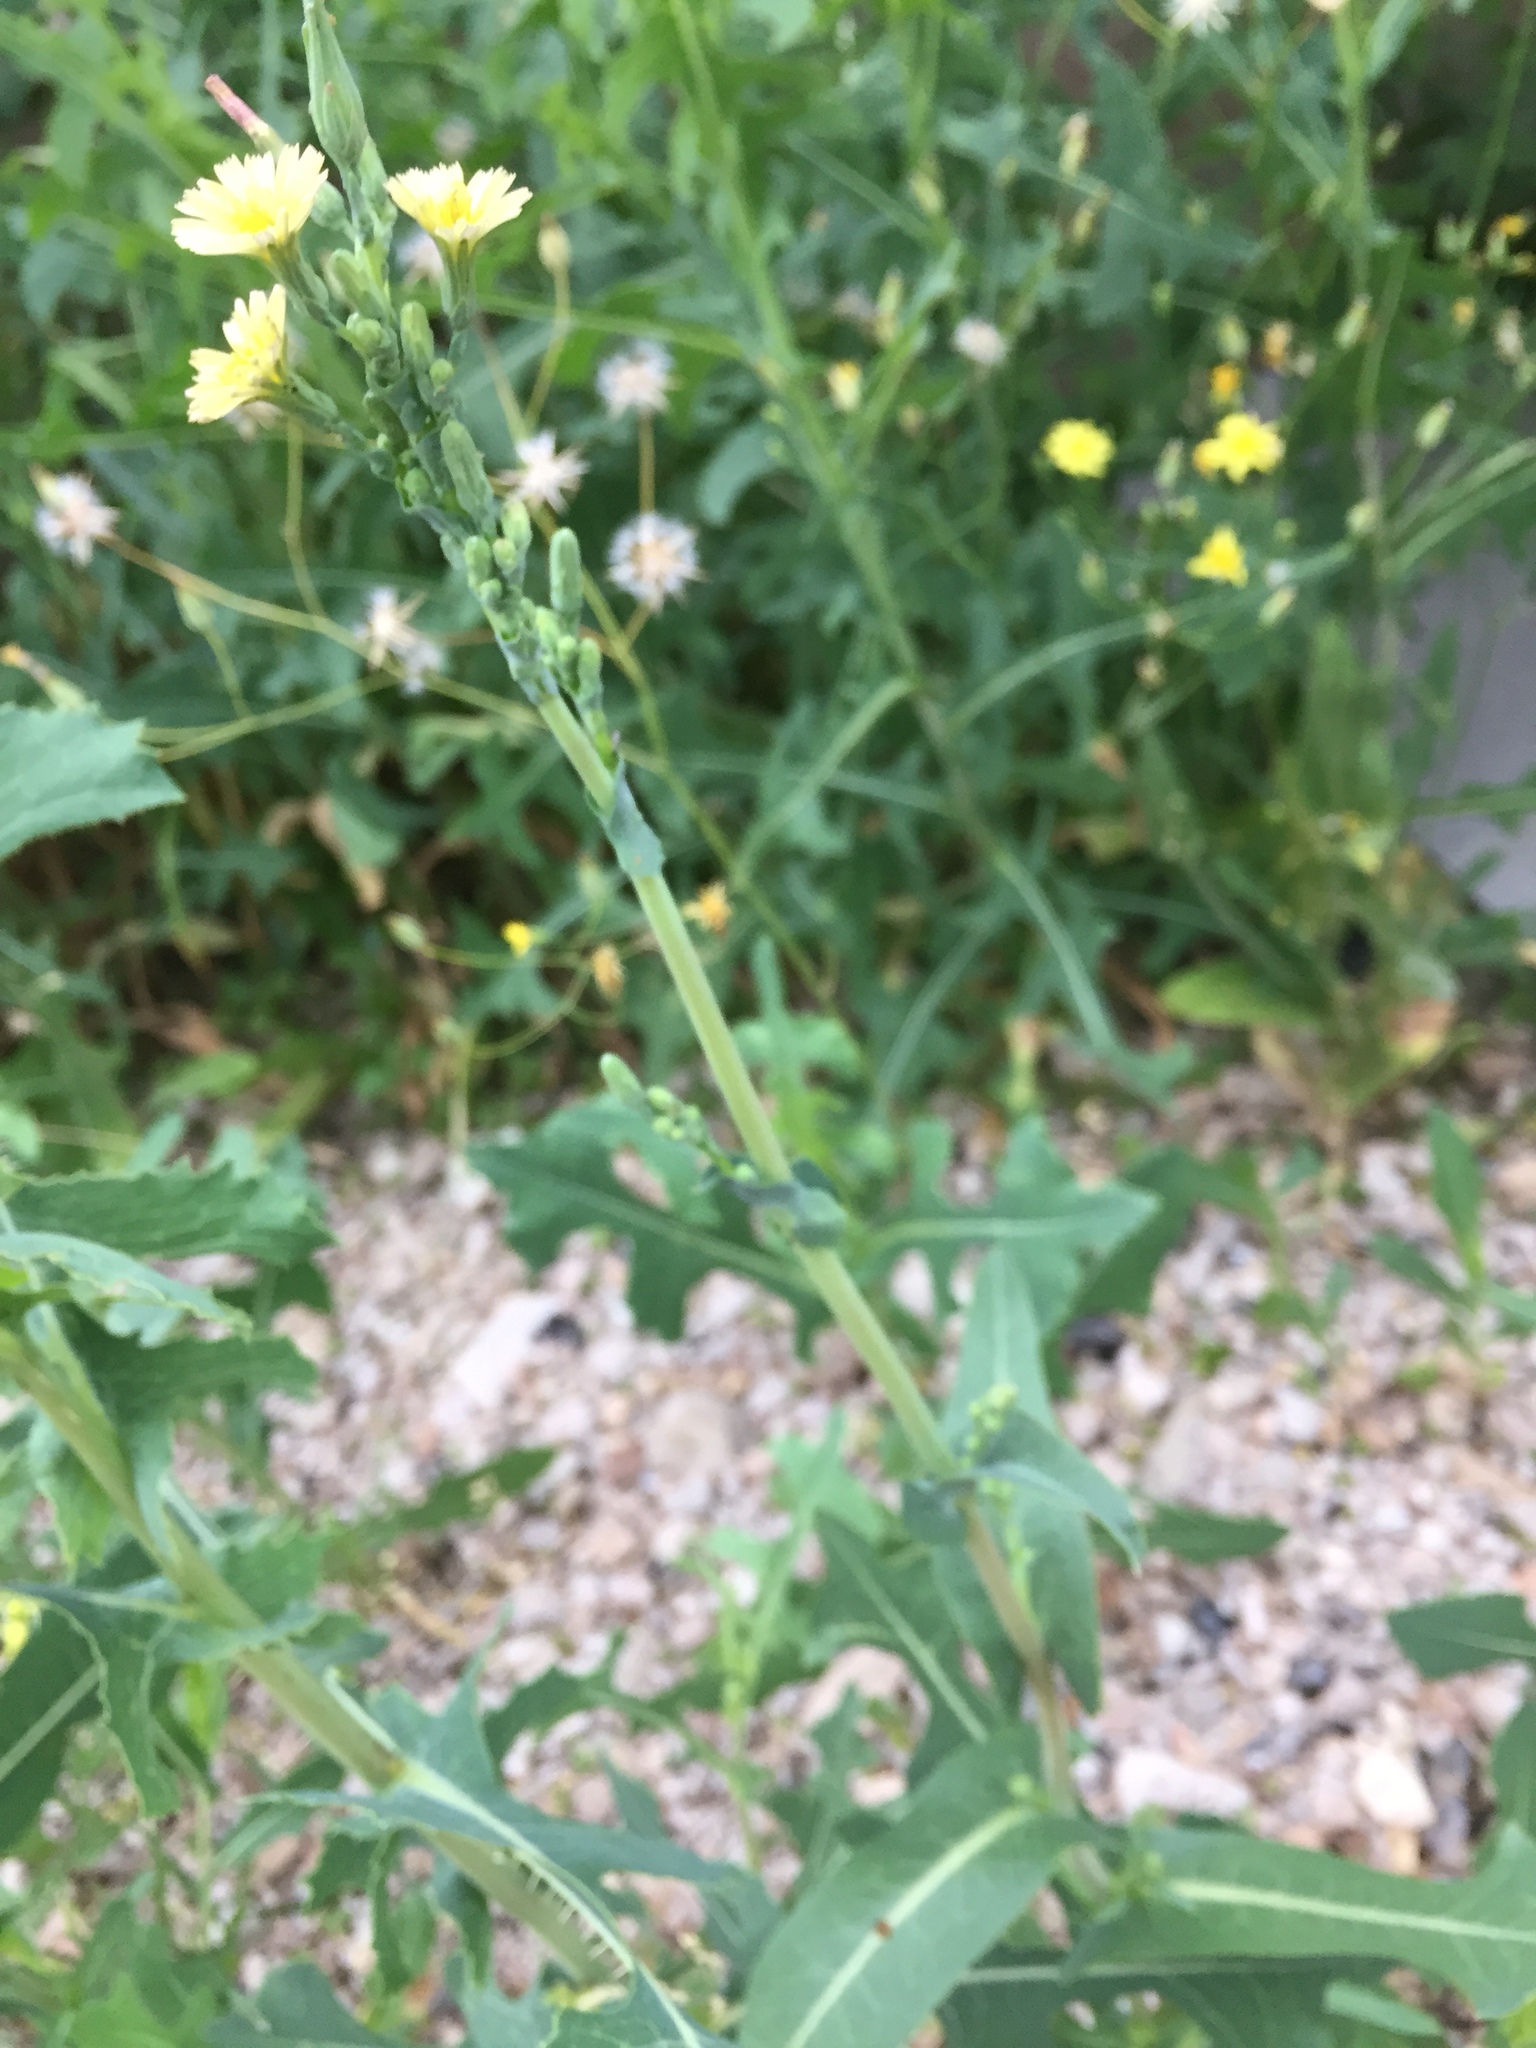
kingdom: Plantae
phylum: Tracheophyta
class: Magnoliopsida
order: Asterales
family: Asteraceae
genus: Lactuca
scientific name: Lactuca serriola
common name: Prickly lettuce
